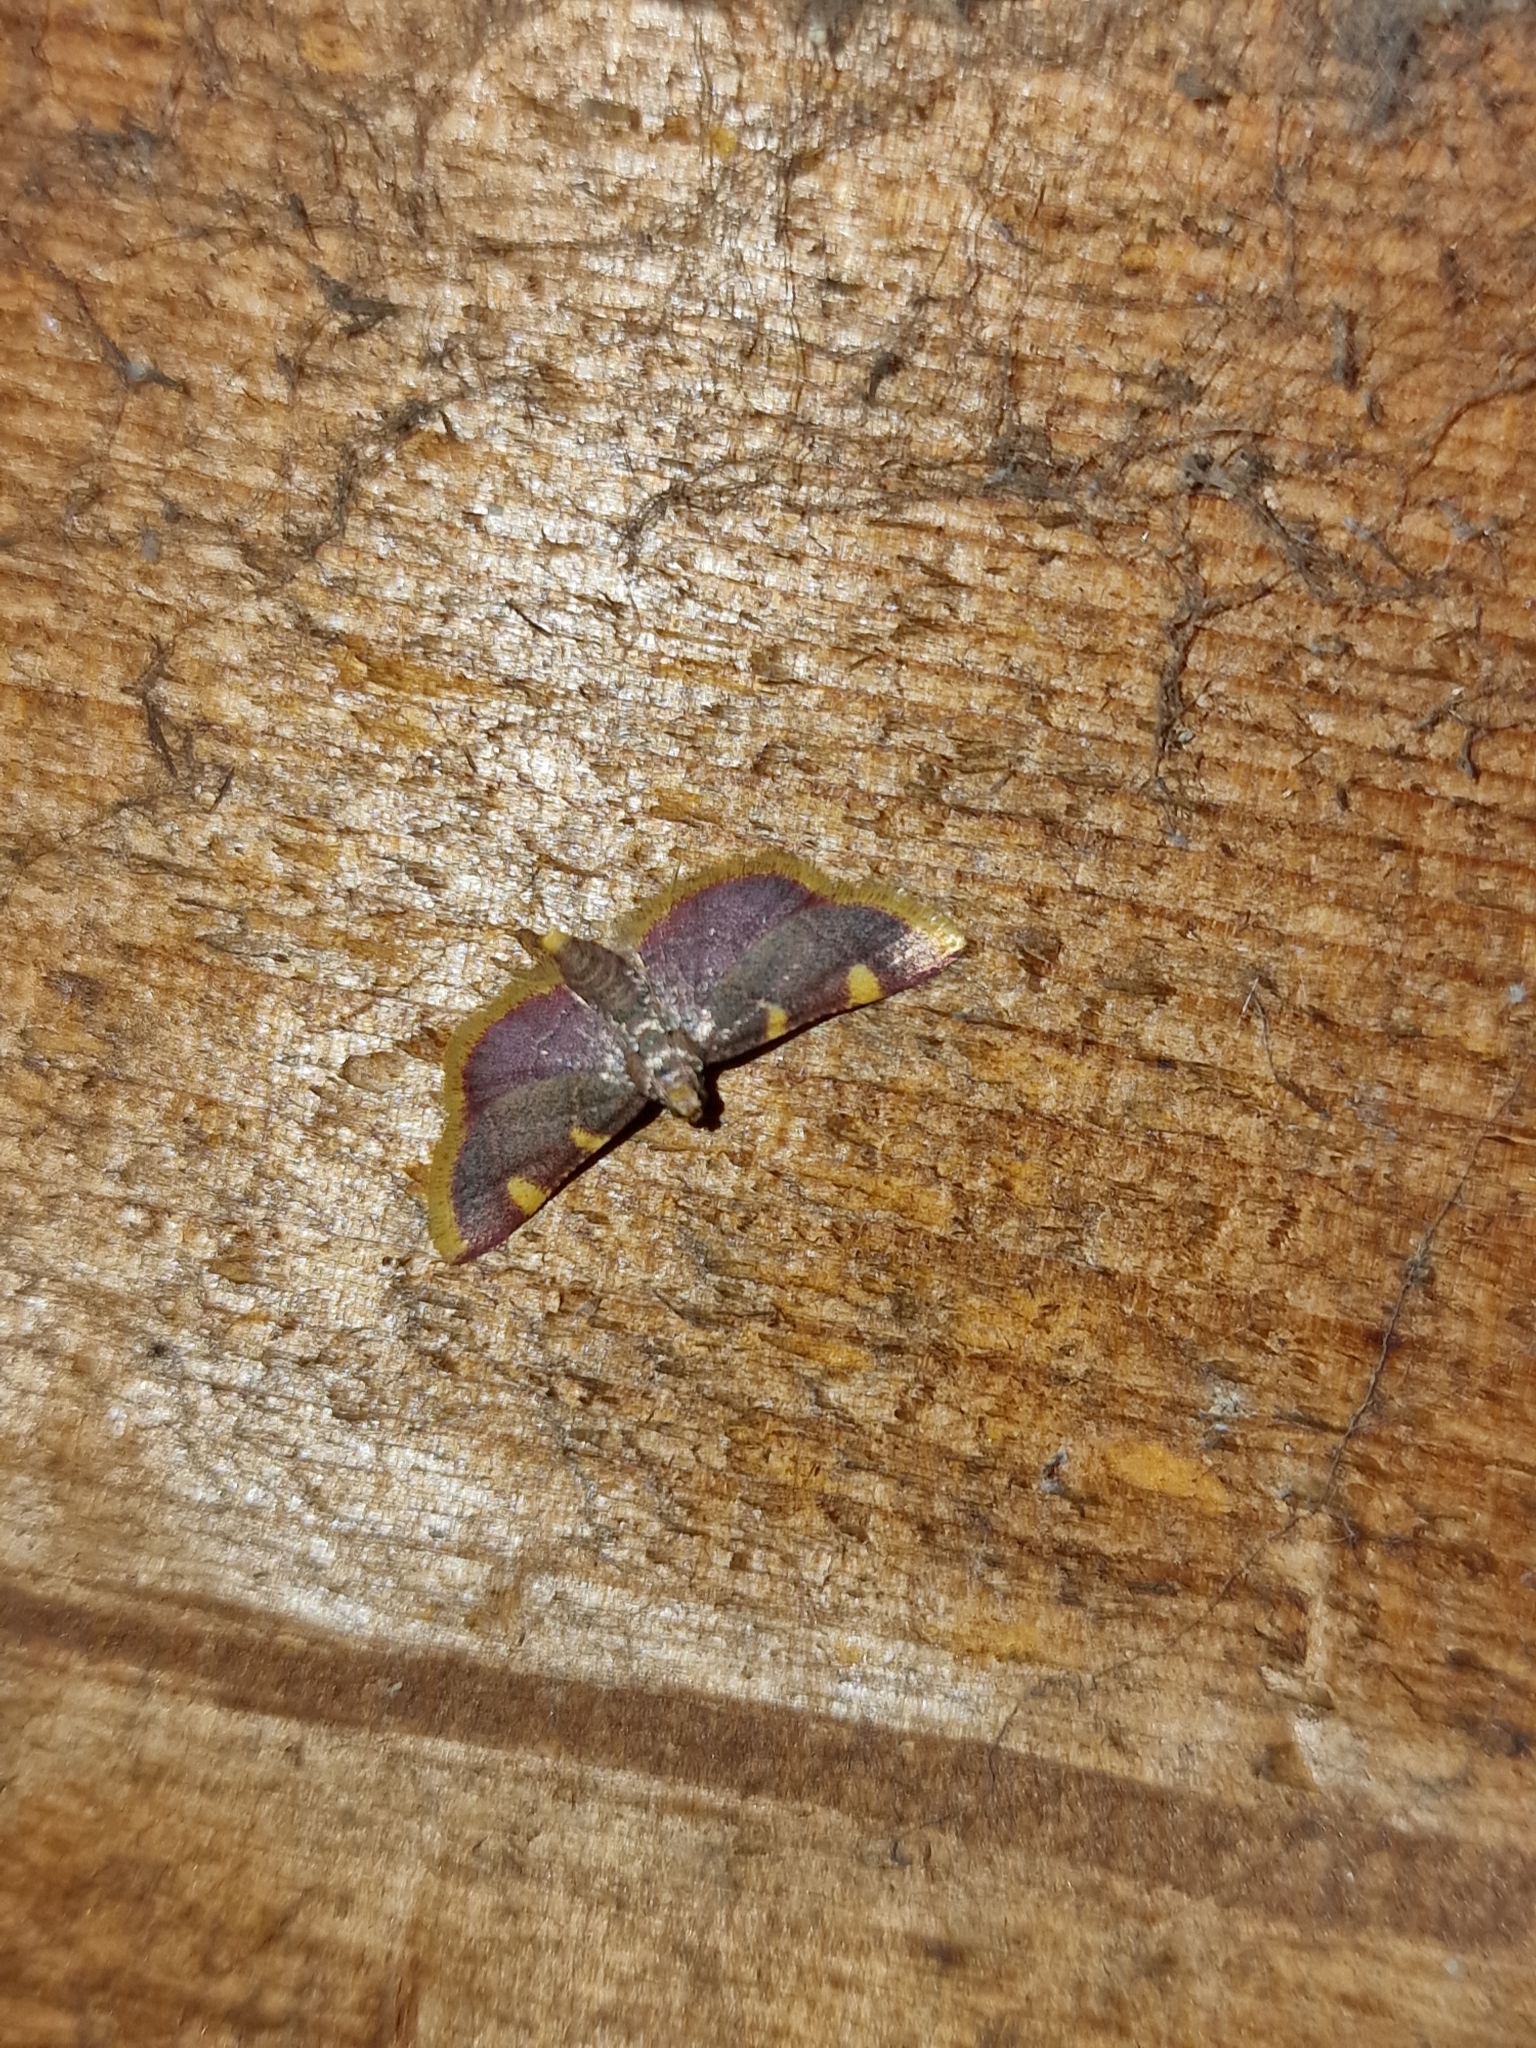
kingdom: Animalia
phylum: Arthropoda
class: Insecta
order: Lepidoptera
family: Pyralidae
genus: Hypsopygia
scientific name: Hypsopygia costalis
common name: Gold triangle
